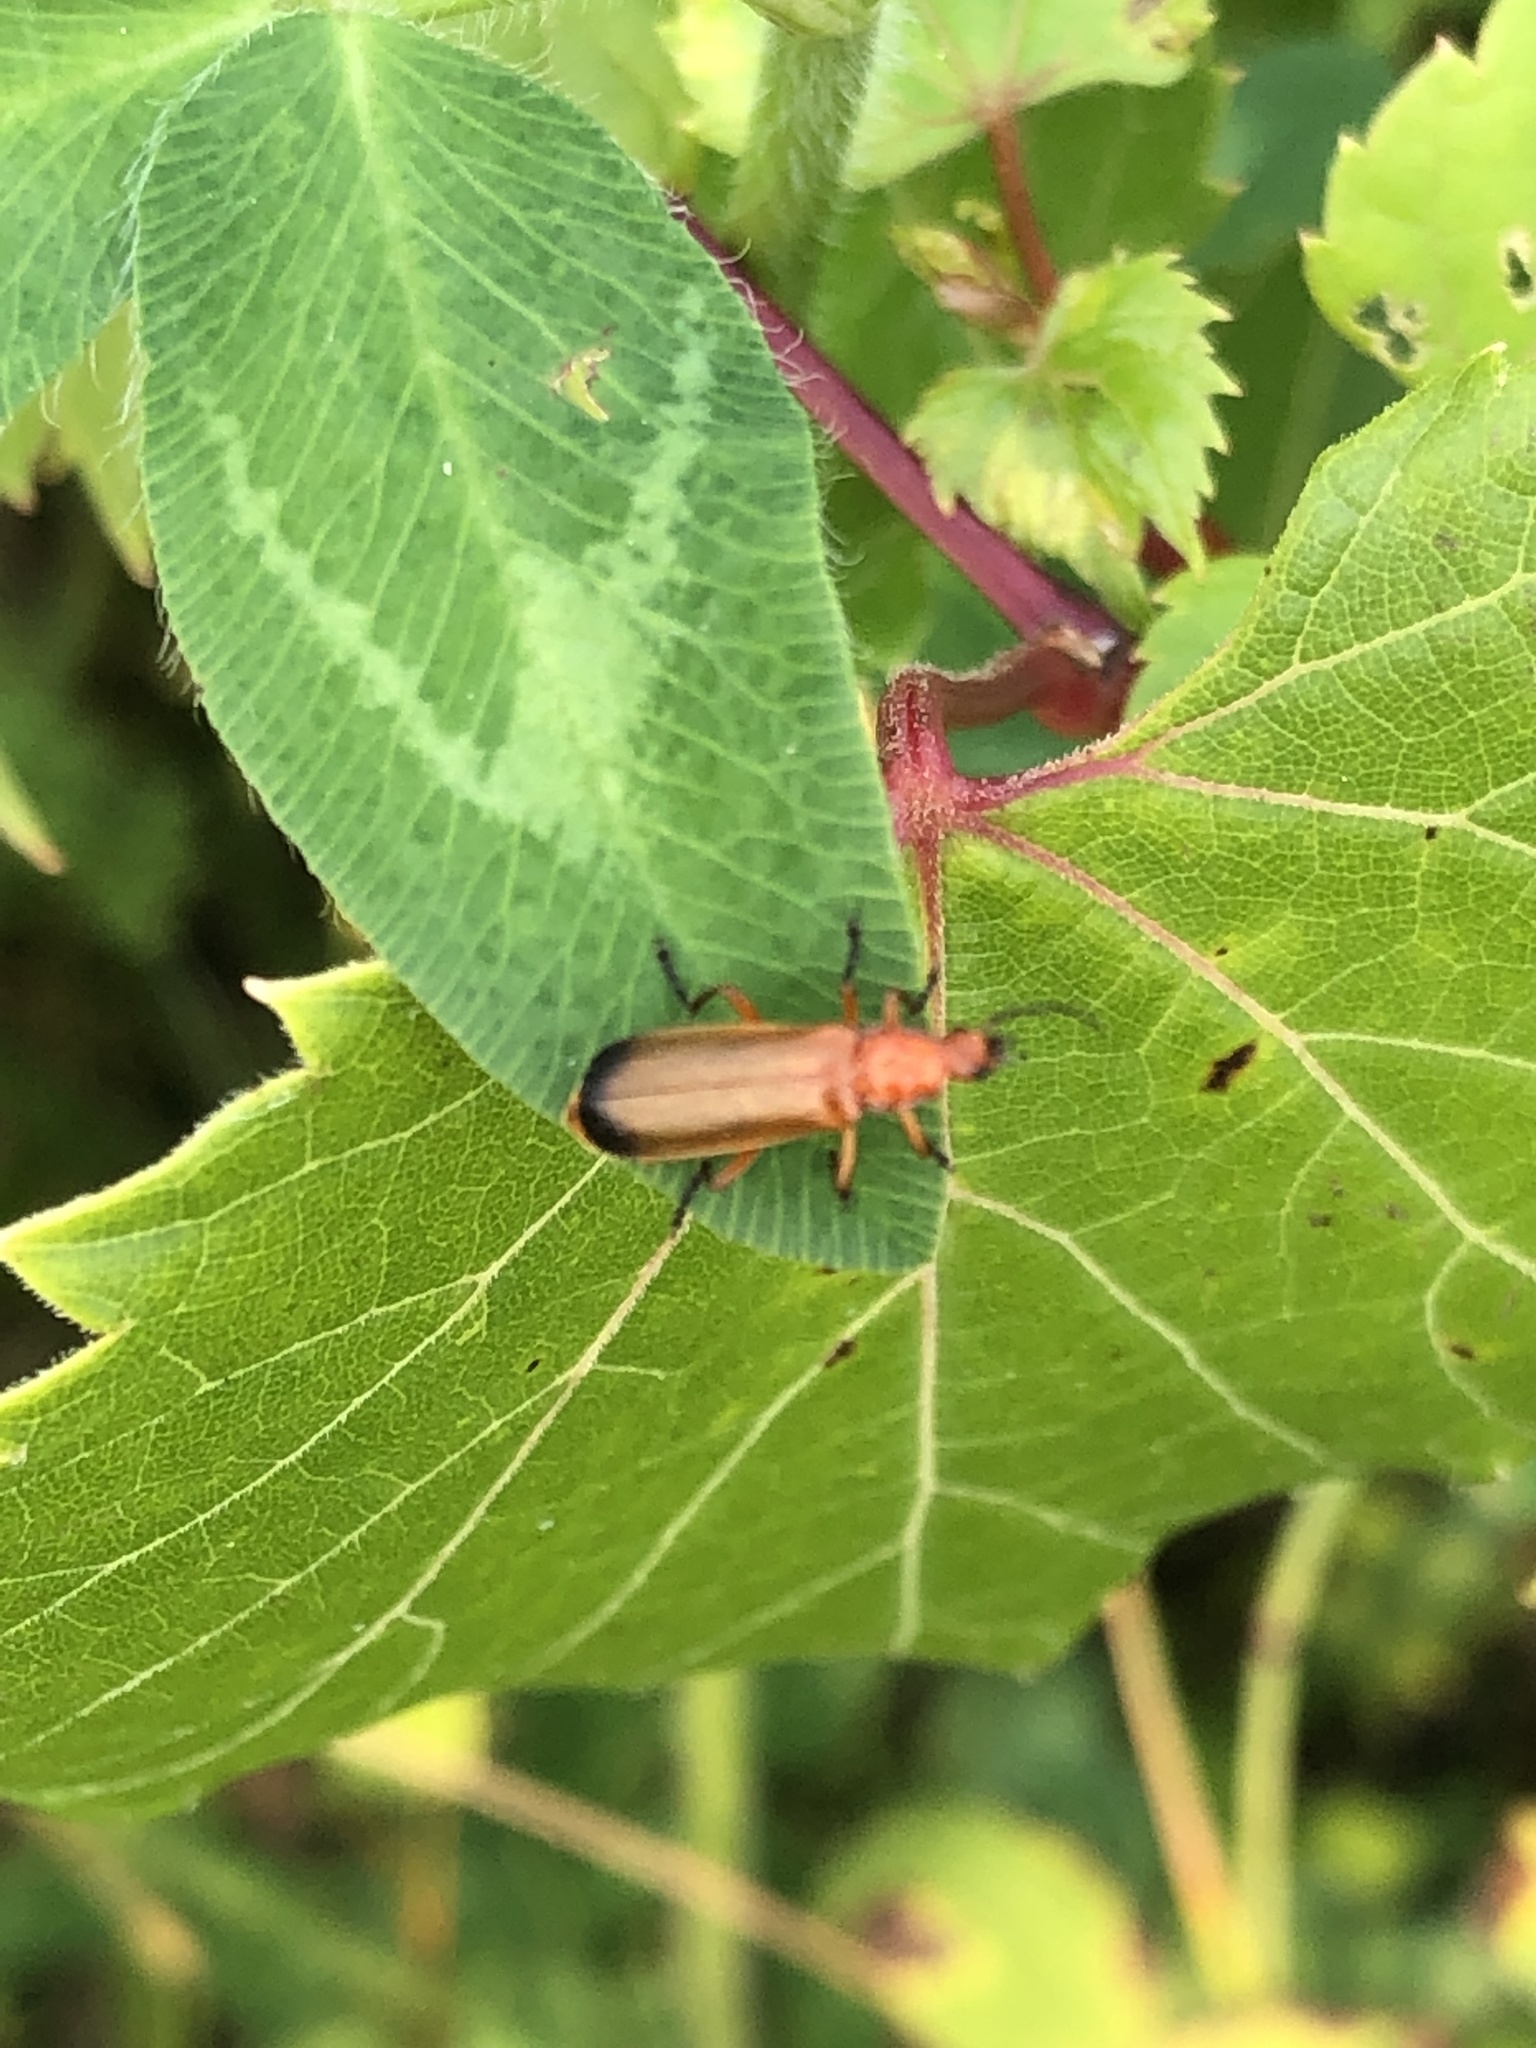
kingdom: Animalia
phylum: Arthropoda
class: Insecta
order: Coleoptera
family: Cantharidae
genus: Rhagonycha
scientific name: Rhagonycha fulva
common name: Common red soldier beetle
